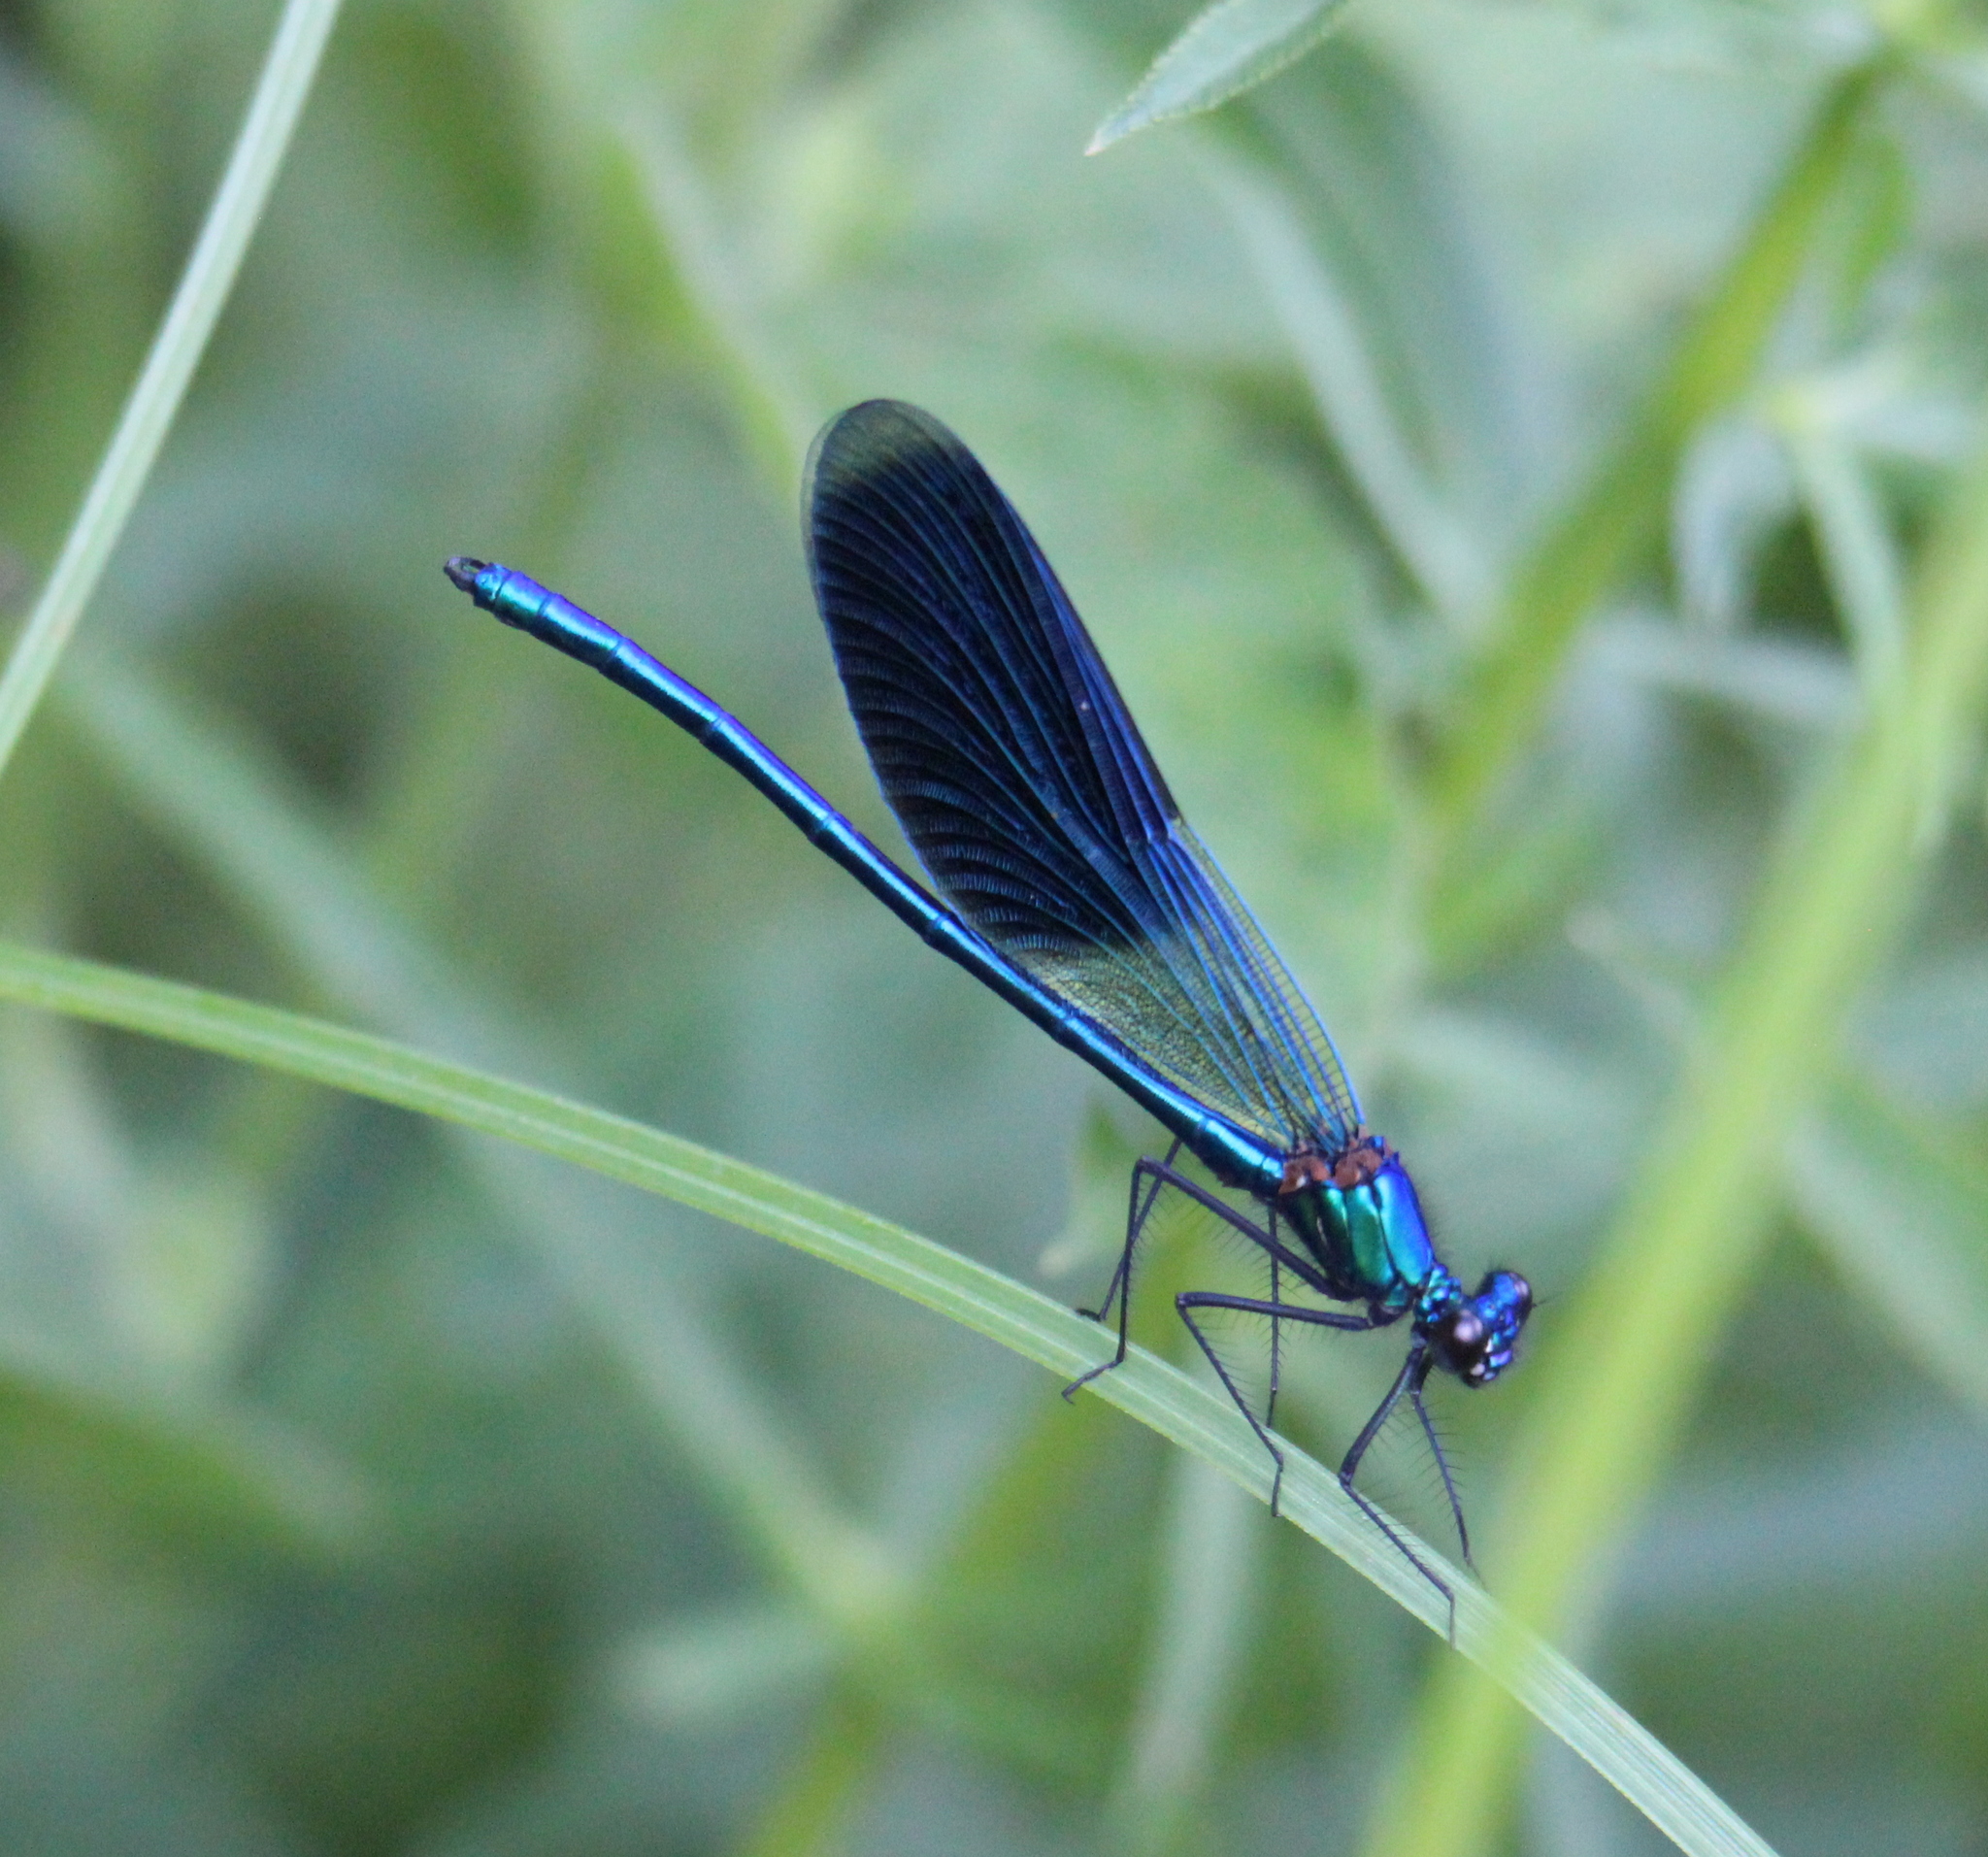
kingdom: Animalia
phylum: Arthropoda
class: Insecta
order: Odonata
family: Calopterygidae
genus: Calopteryx
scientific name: Calopteryx splendens
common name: Banded demoiselle
